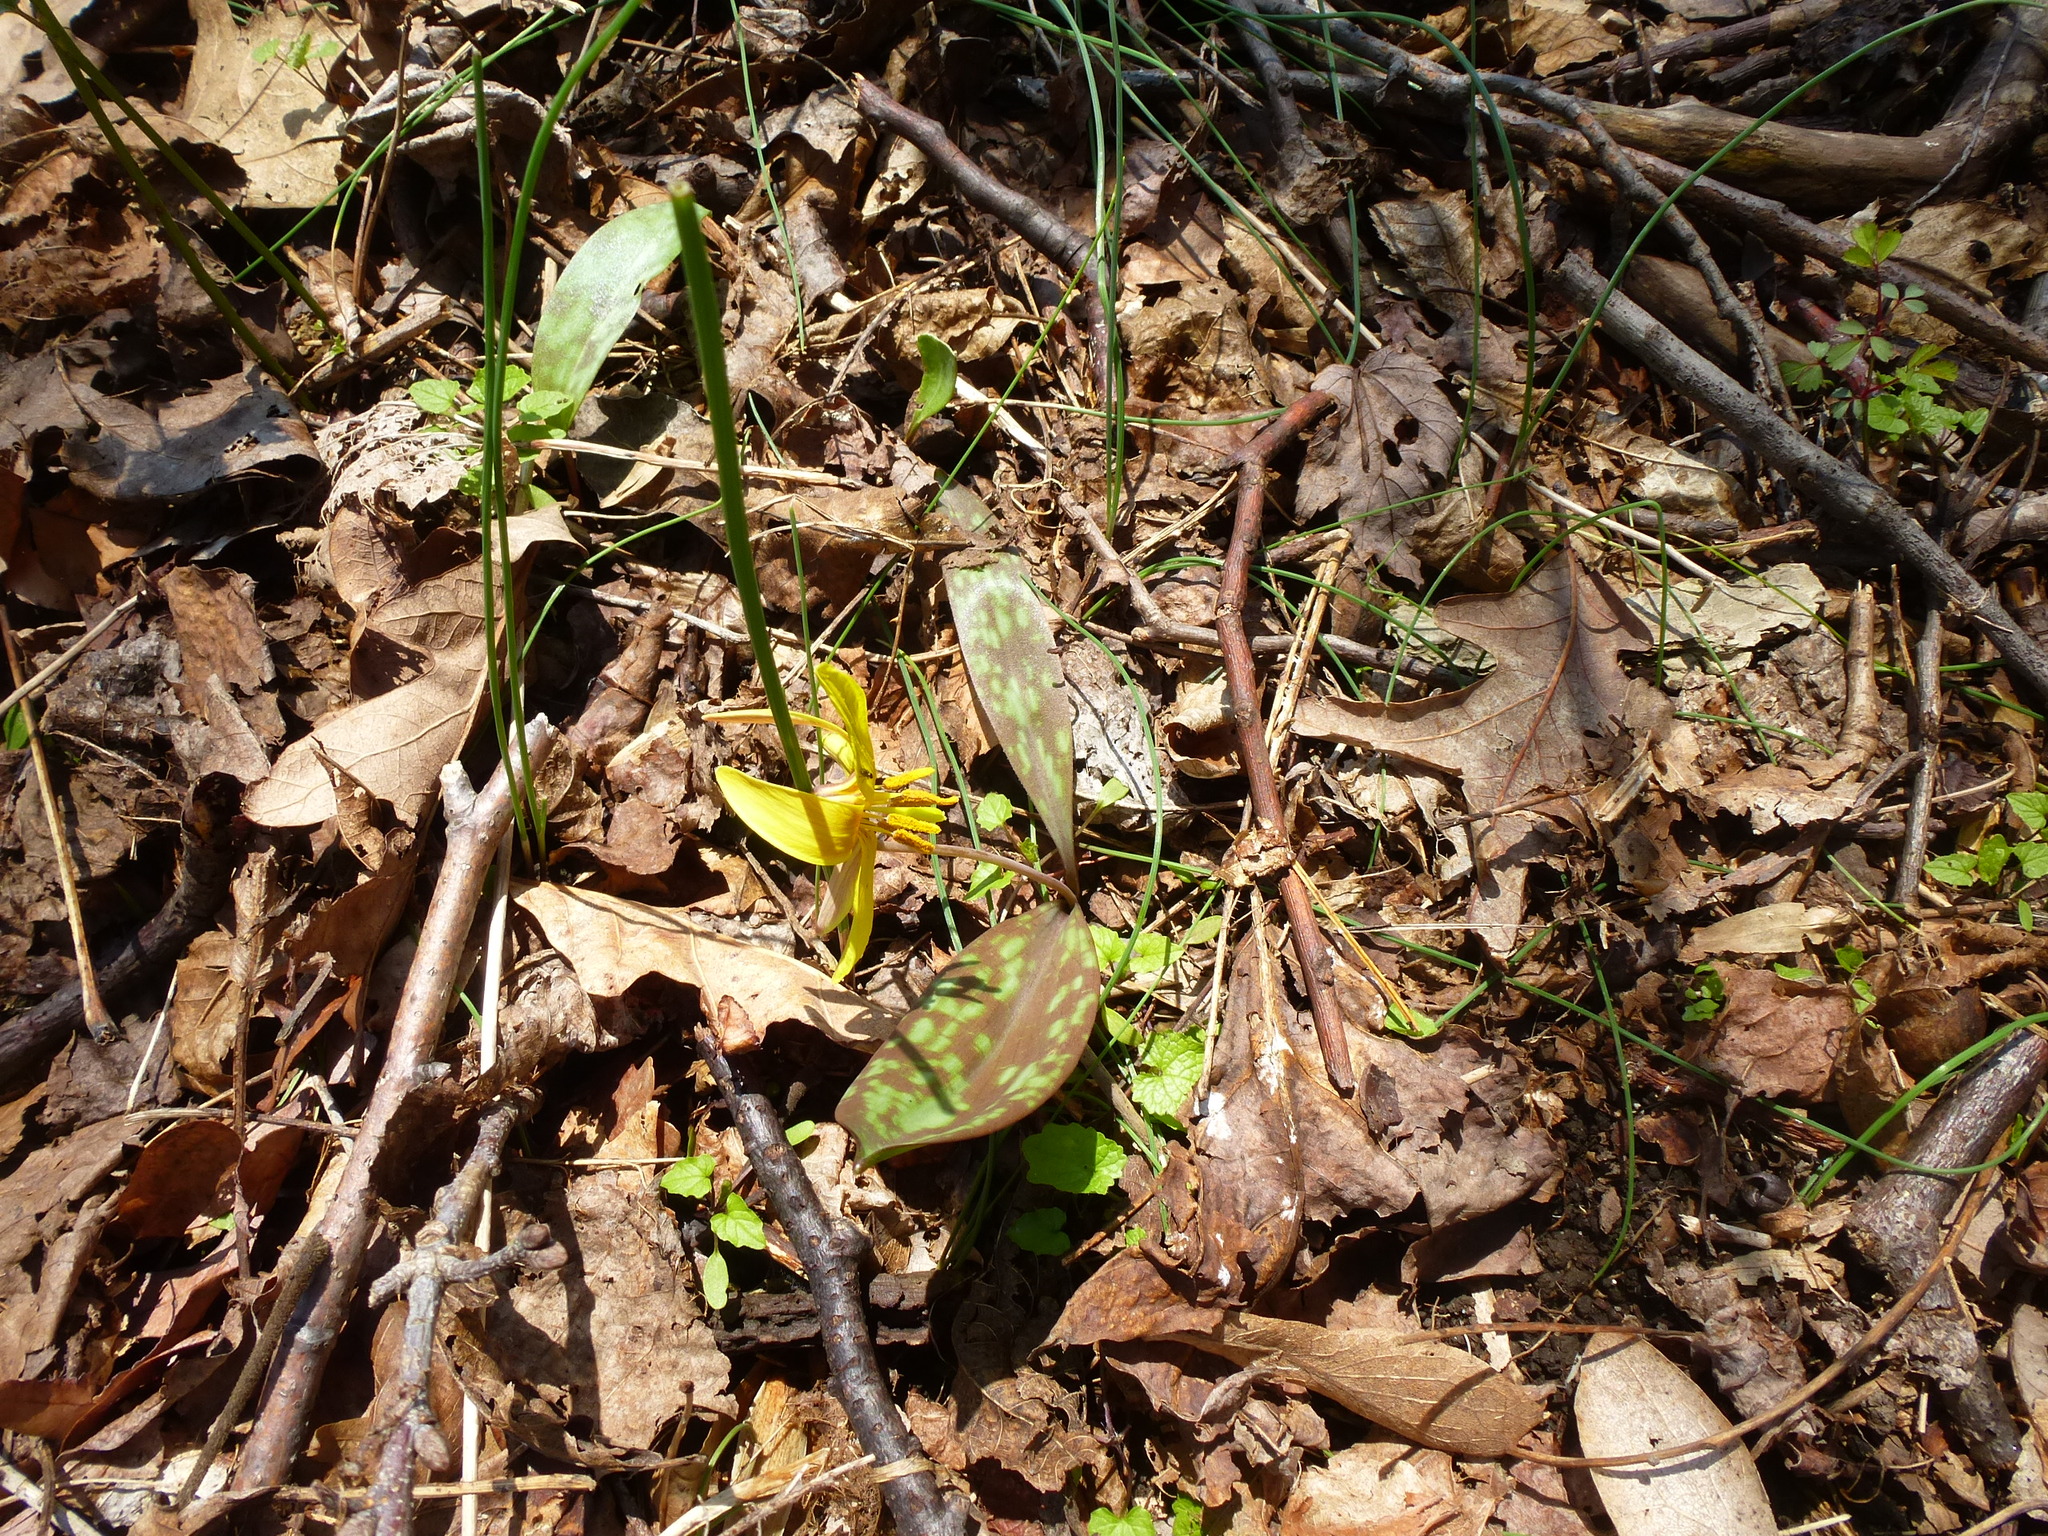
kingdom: Plantae
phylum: Tracheophyta
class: Liliopsida
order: Liliales
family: Liliaceae
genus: Erythronium
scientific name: Erythronium americanum
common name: Yellow adder's-tongue
